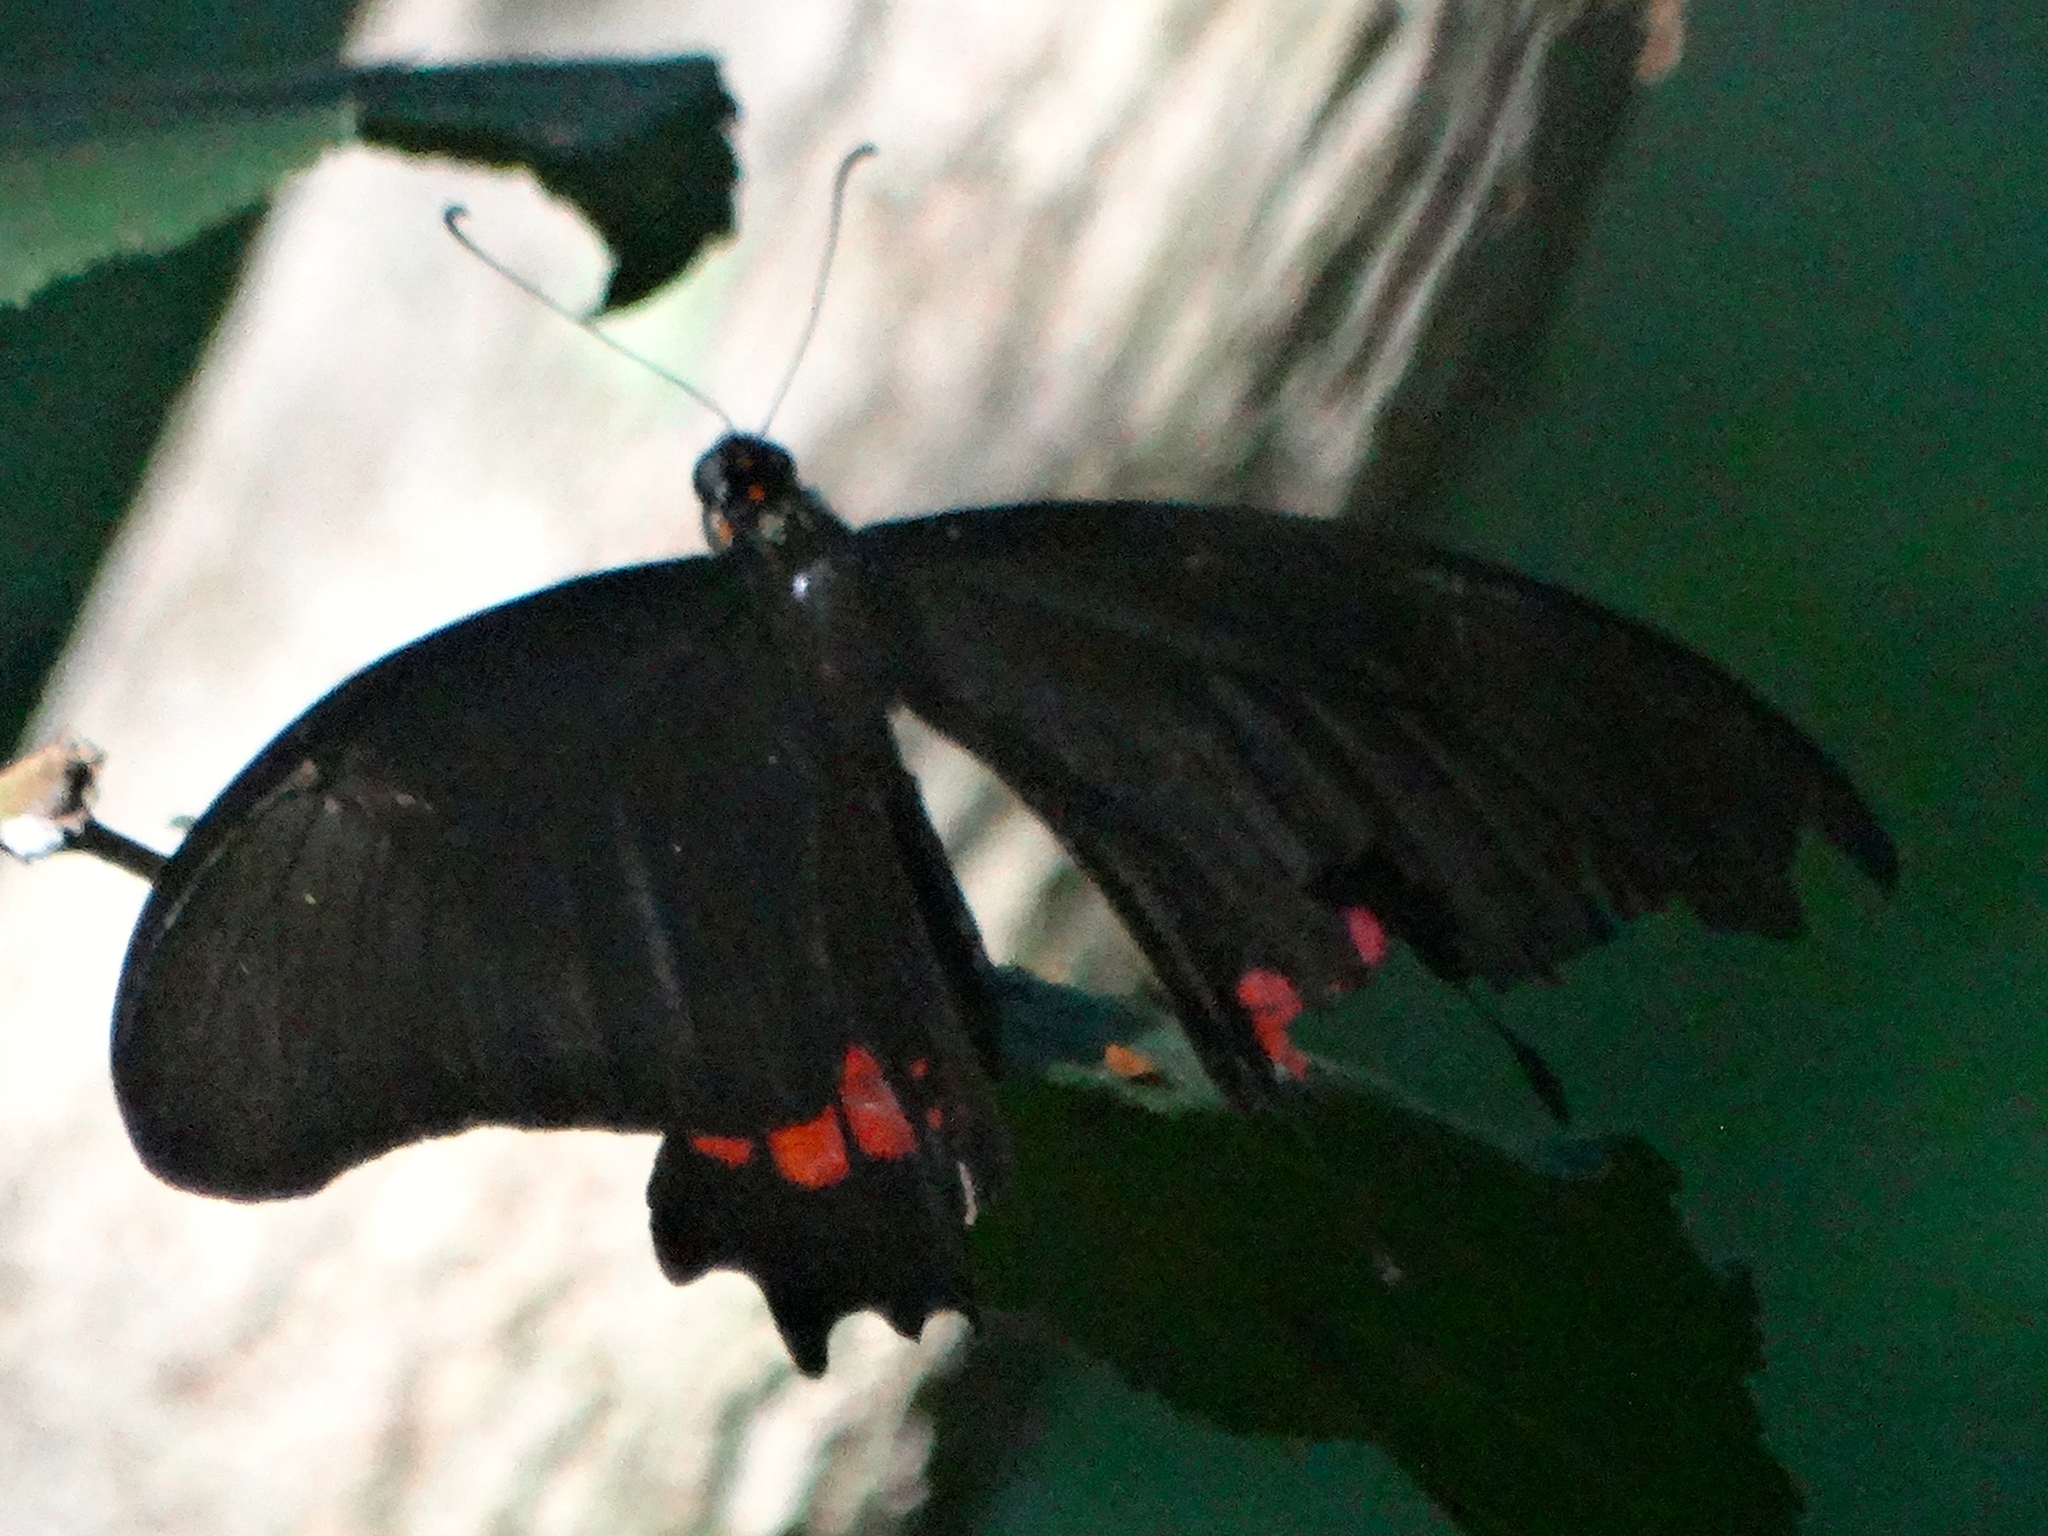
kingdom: Animalia
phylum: Arthropoda
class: Insecta
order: Lepidoptera
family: Papilionidae
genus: Papilio
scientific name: Papilio anchisiades
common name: Idaes swallowtail
